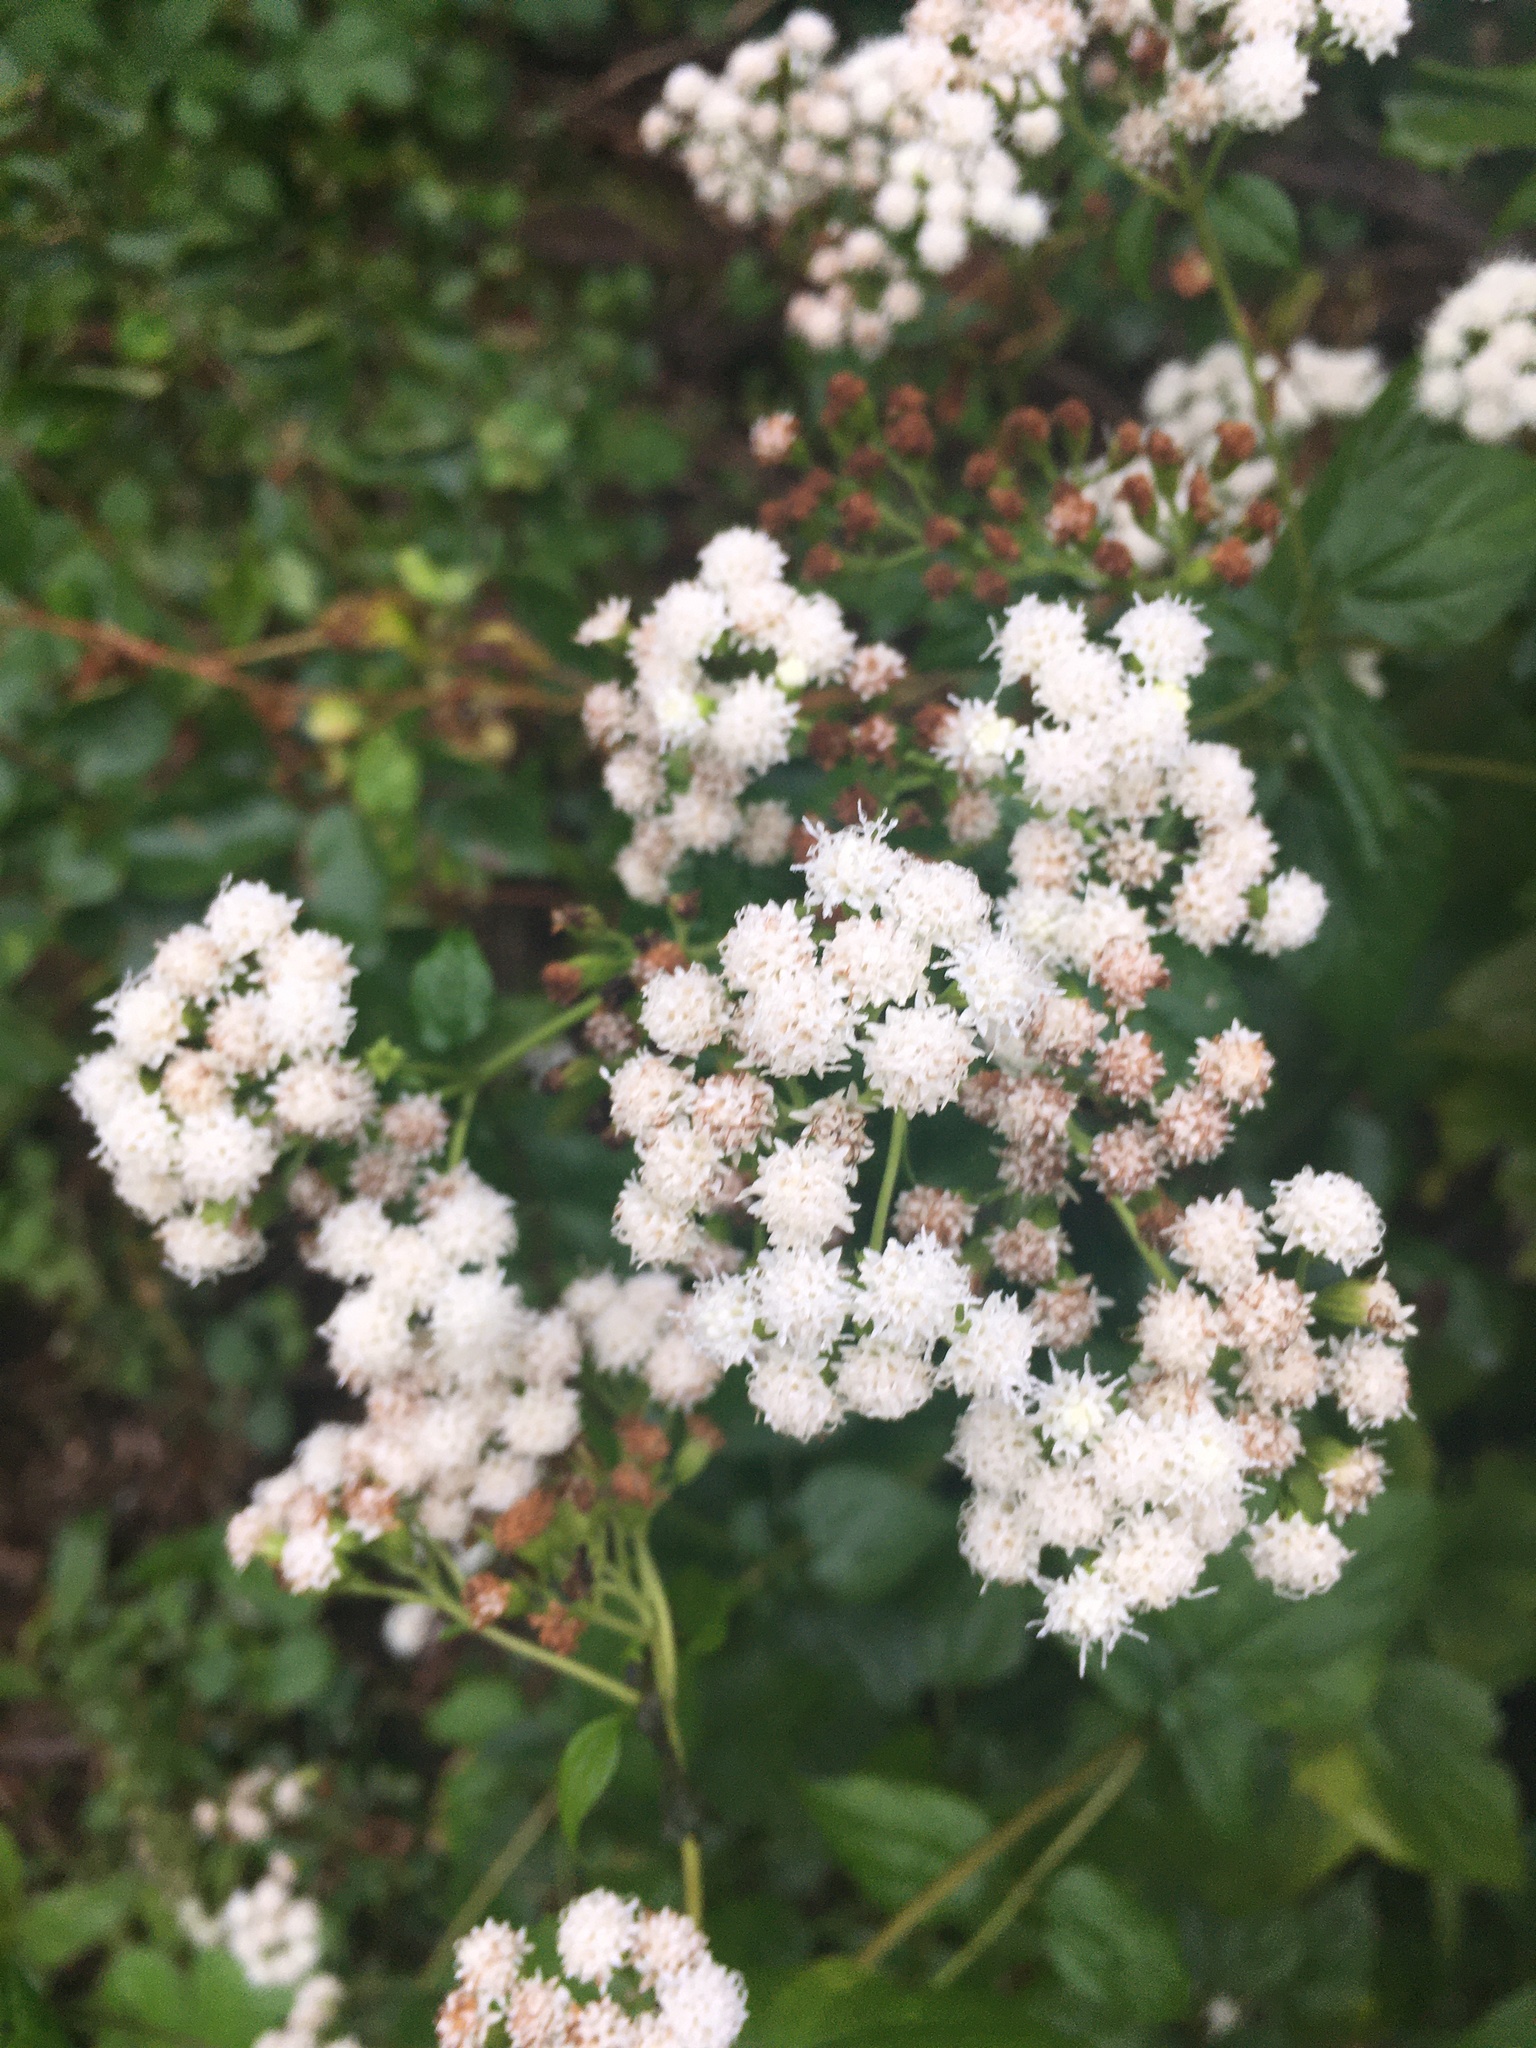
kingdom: Plantae
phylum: Tracheophyta
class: Magnoliopsida
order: Asterales
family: Asteraceae
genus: Ageratina
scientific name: Ageratina altissima
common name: White snakeroot
